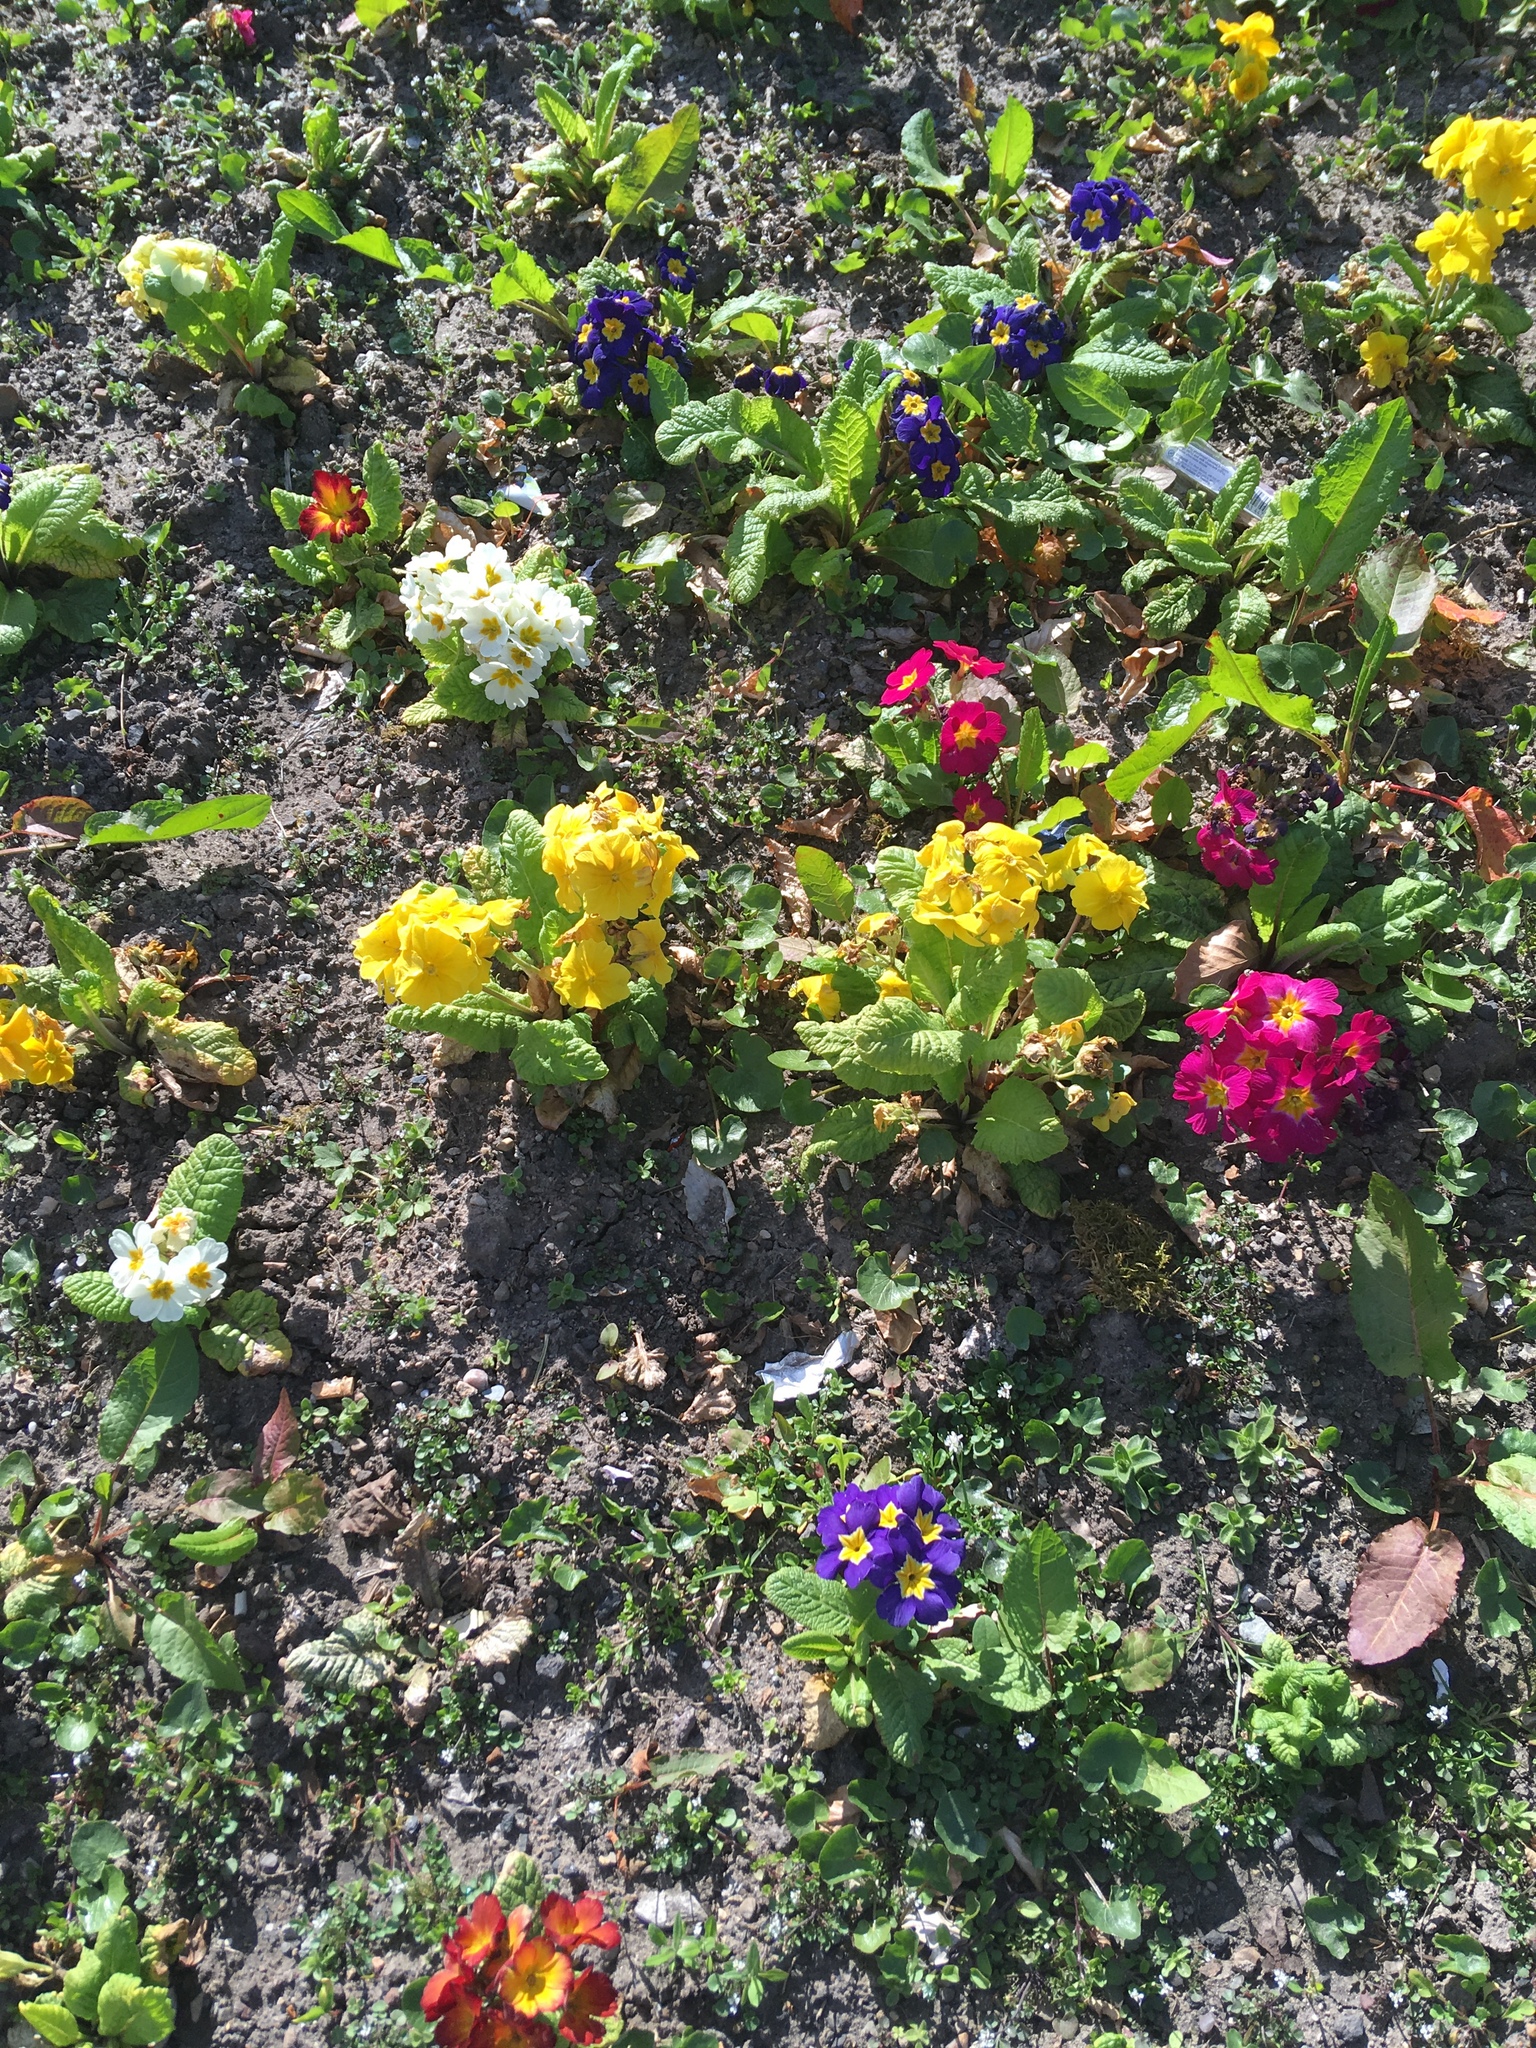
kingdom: Plantae
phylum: Tracheophyta
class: Magnoliopsida
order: Ericales
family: Primulaceae
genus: Primula
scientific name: Primula vulgaris
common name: Primrose
